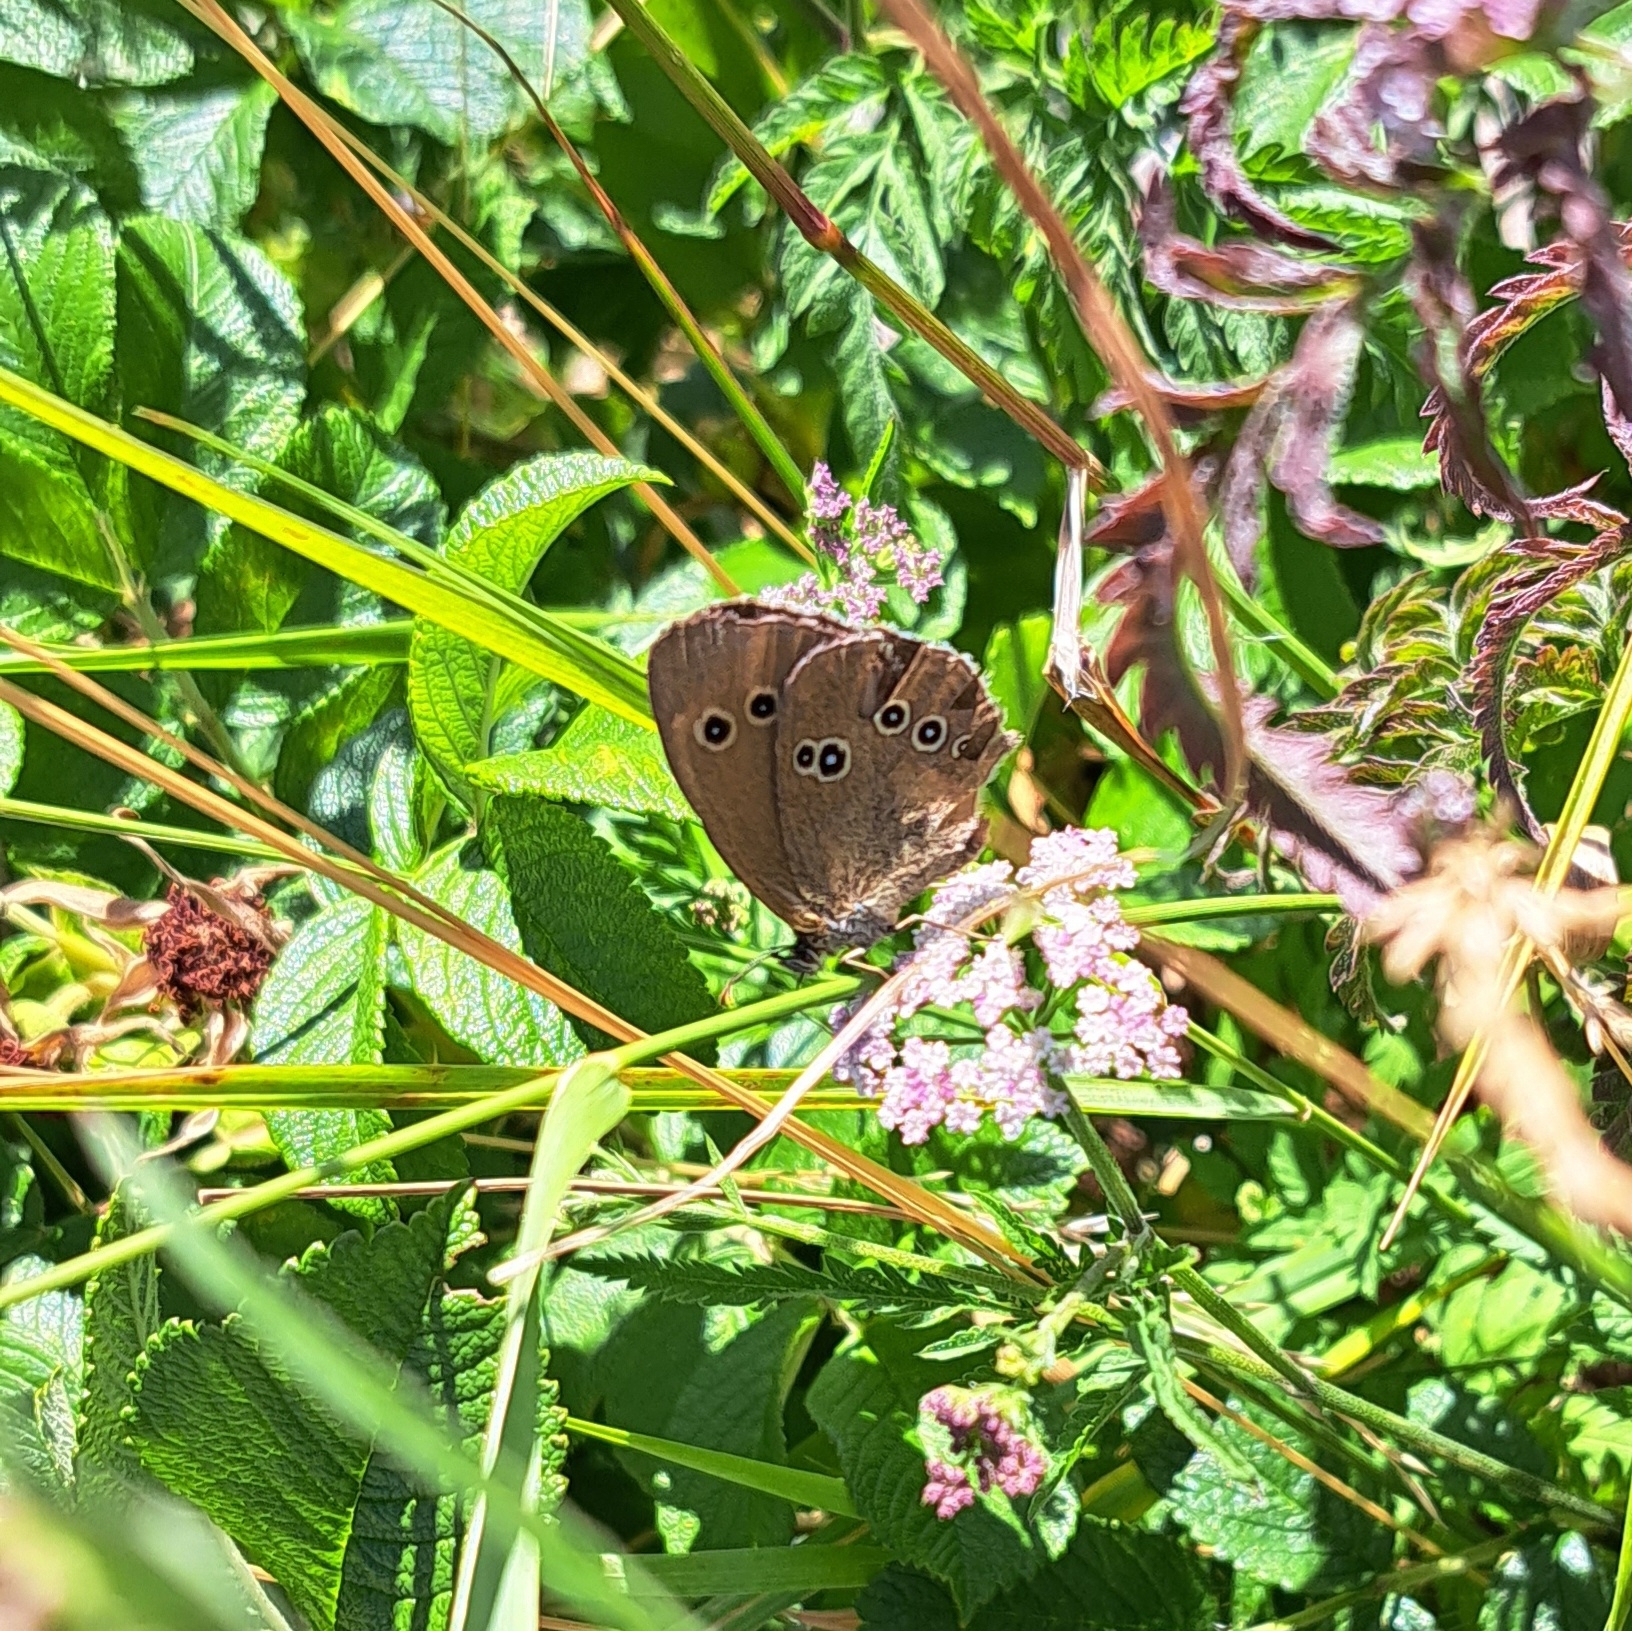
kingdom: Animalia
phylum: Arthropoda
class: Insecta
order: Lepidoptera
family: Nymphalidae
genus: Aphantopus
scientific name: Aphantopus hyperantus
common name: Ringlet
